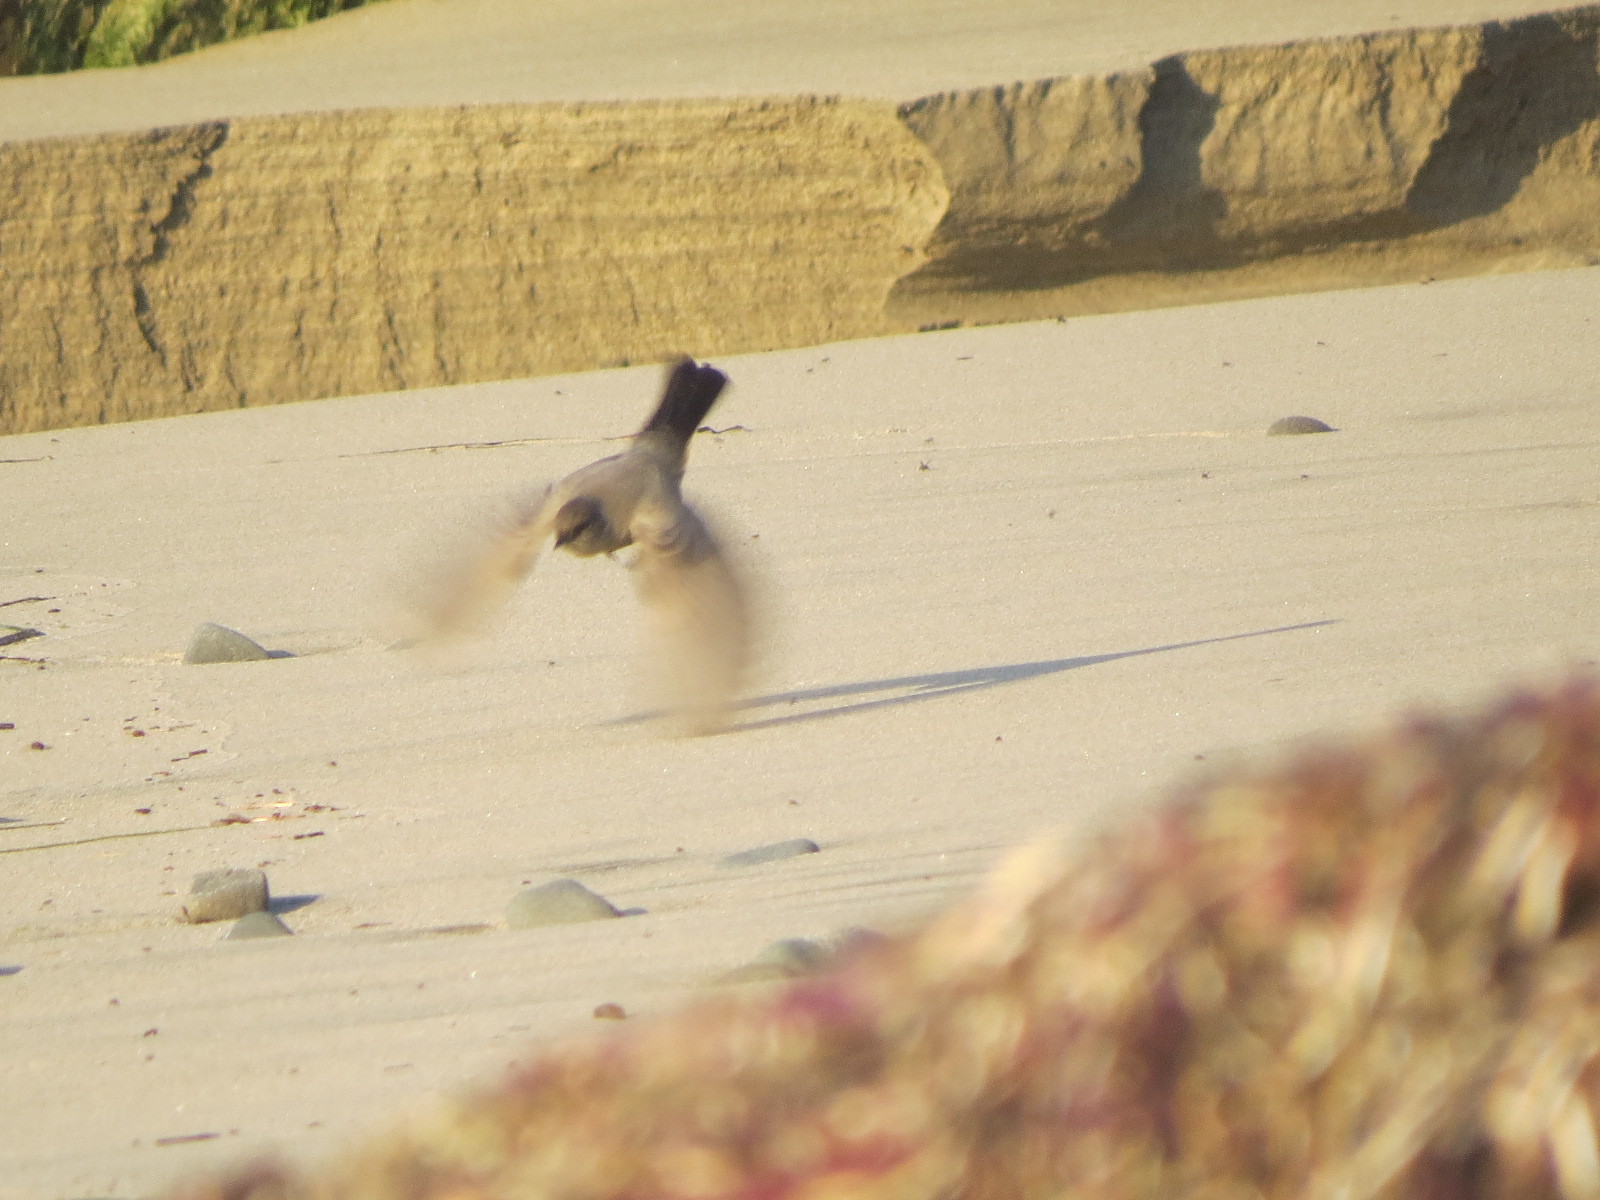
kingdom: Animalia
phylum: Chordata
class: Aves
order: Passeriformes
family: Tyrannidae
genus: Sayornis
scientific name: Sayornis saya
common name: Say's phoebe
